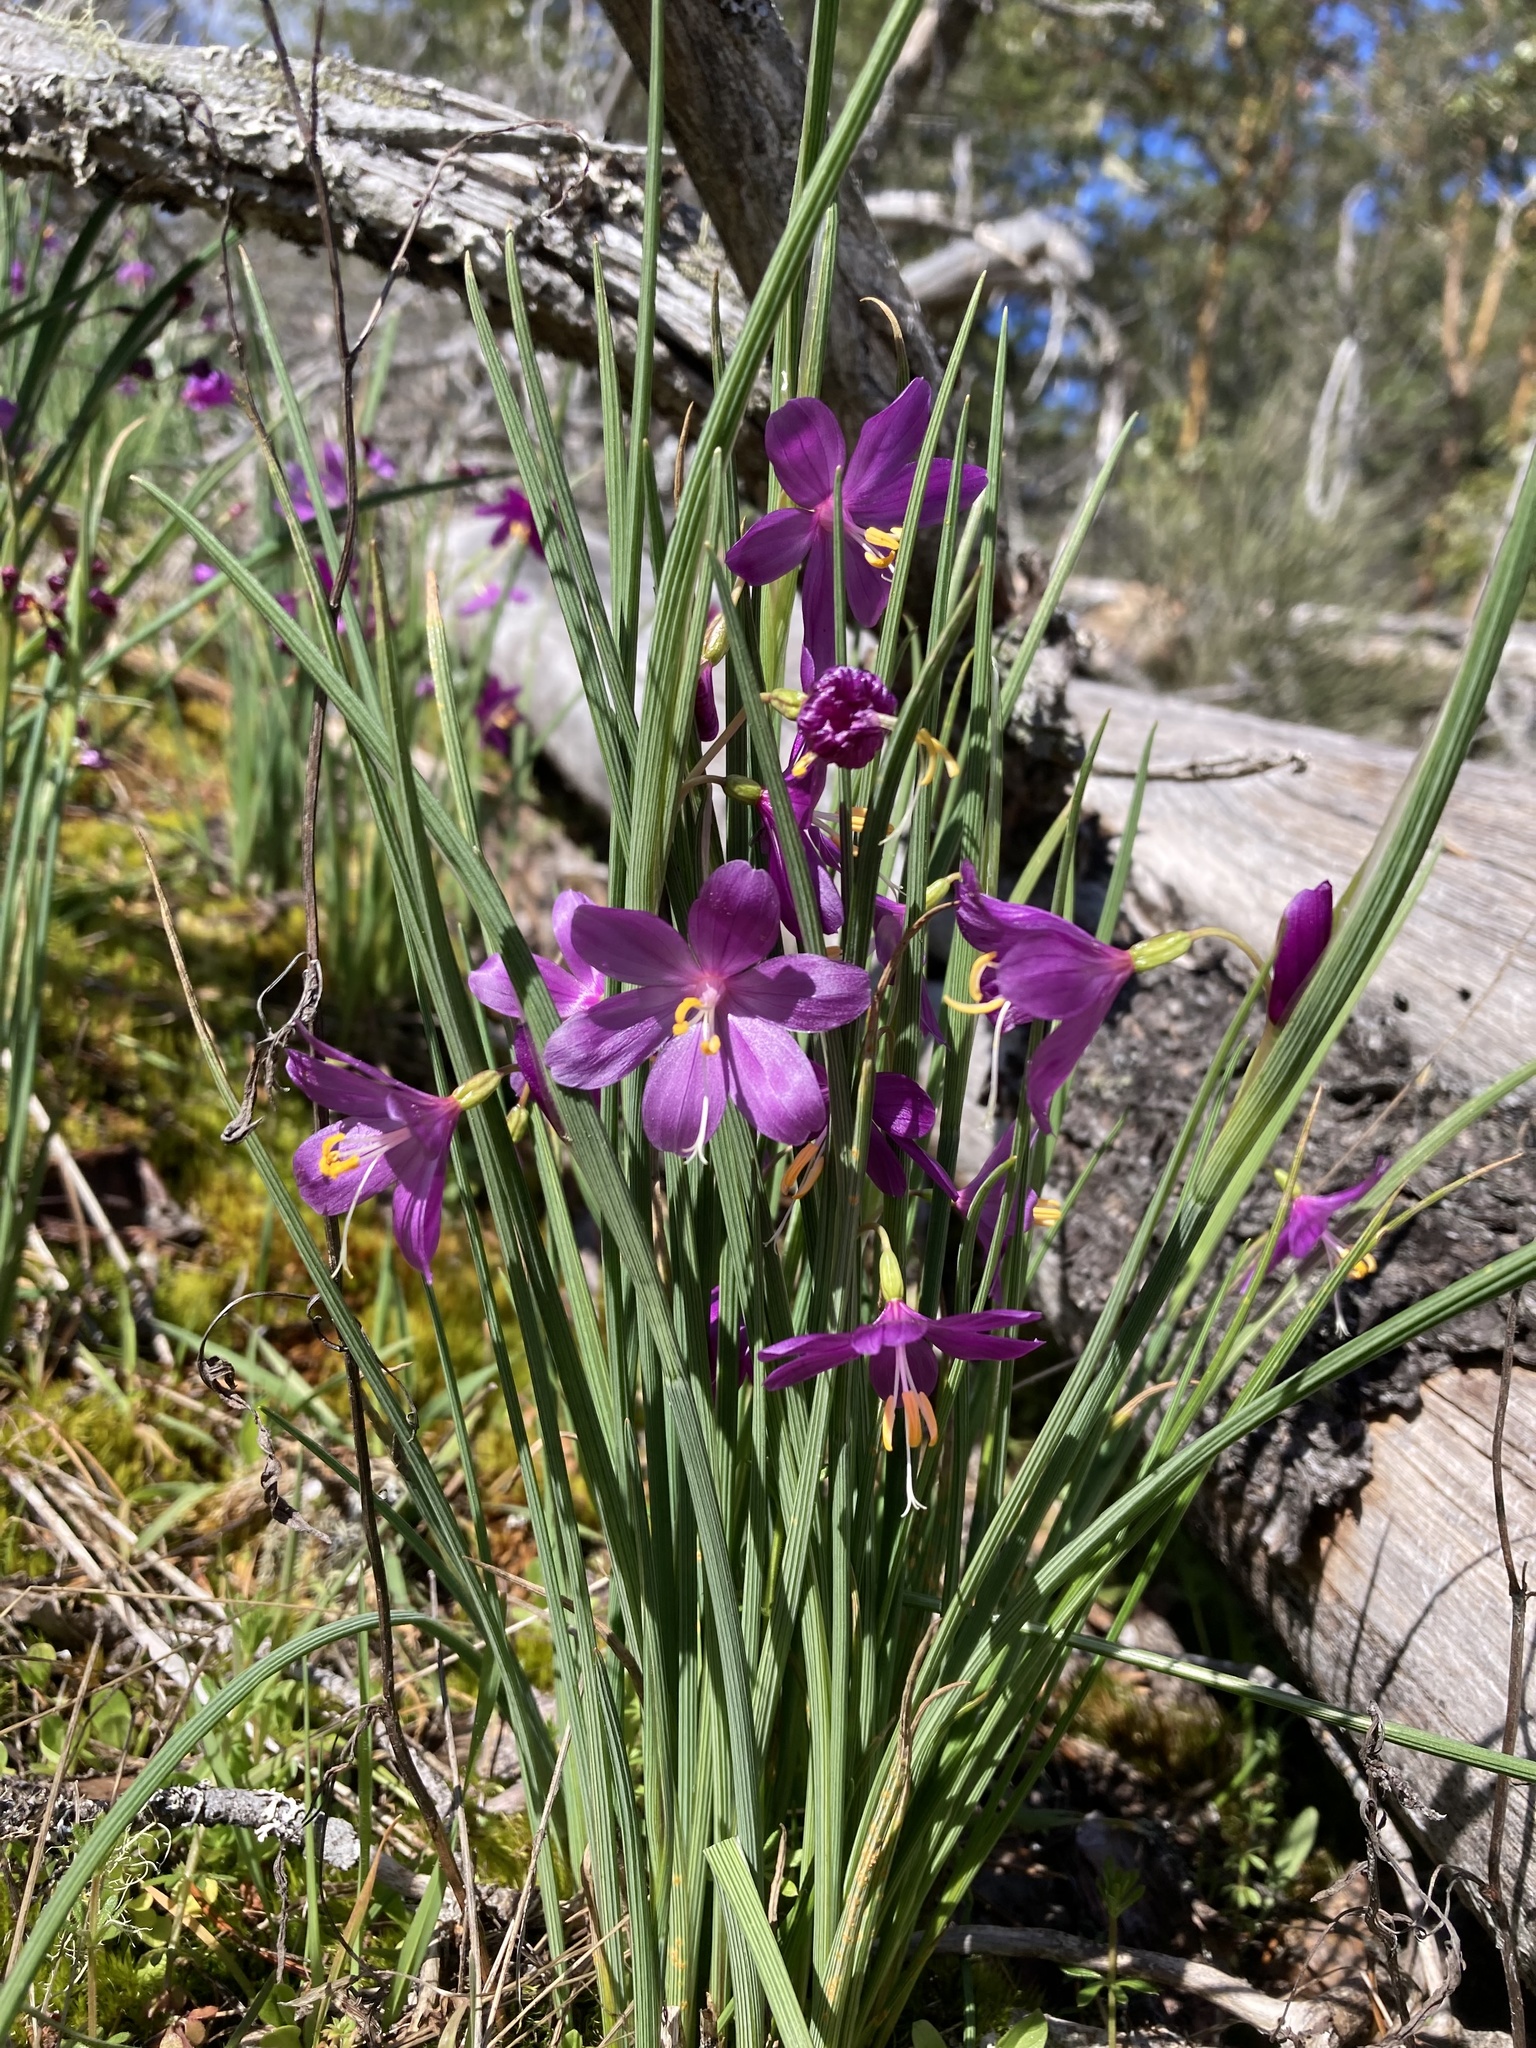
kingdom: Plantae
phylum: Tracheophyta
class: Liliopsida
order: Asparagales
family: Iridaceae
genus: Olsynium
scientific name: Olsynium douglasii
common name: Douglas' grasswidow
